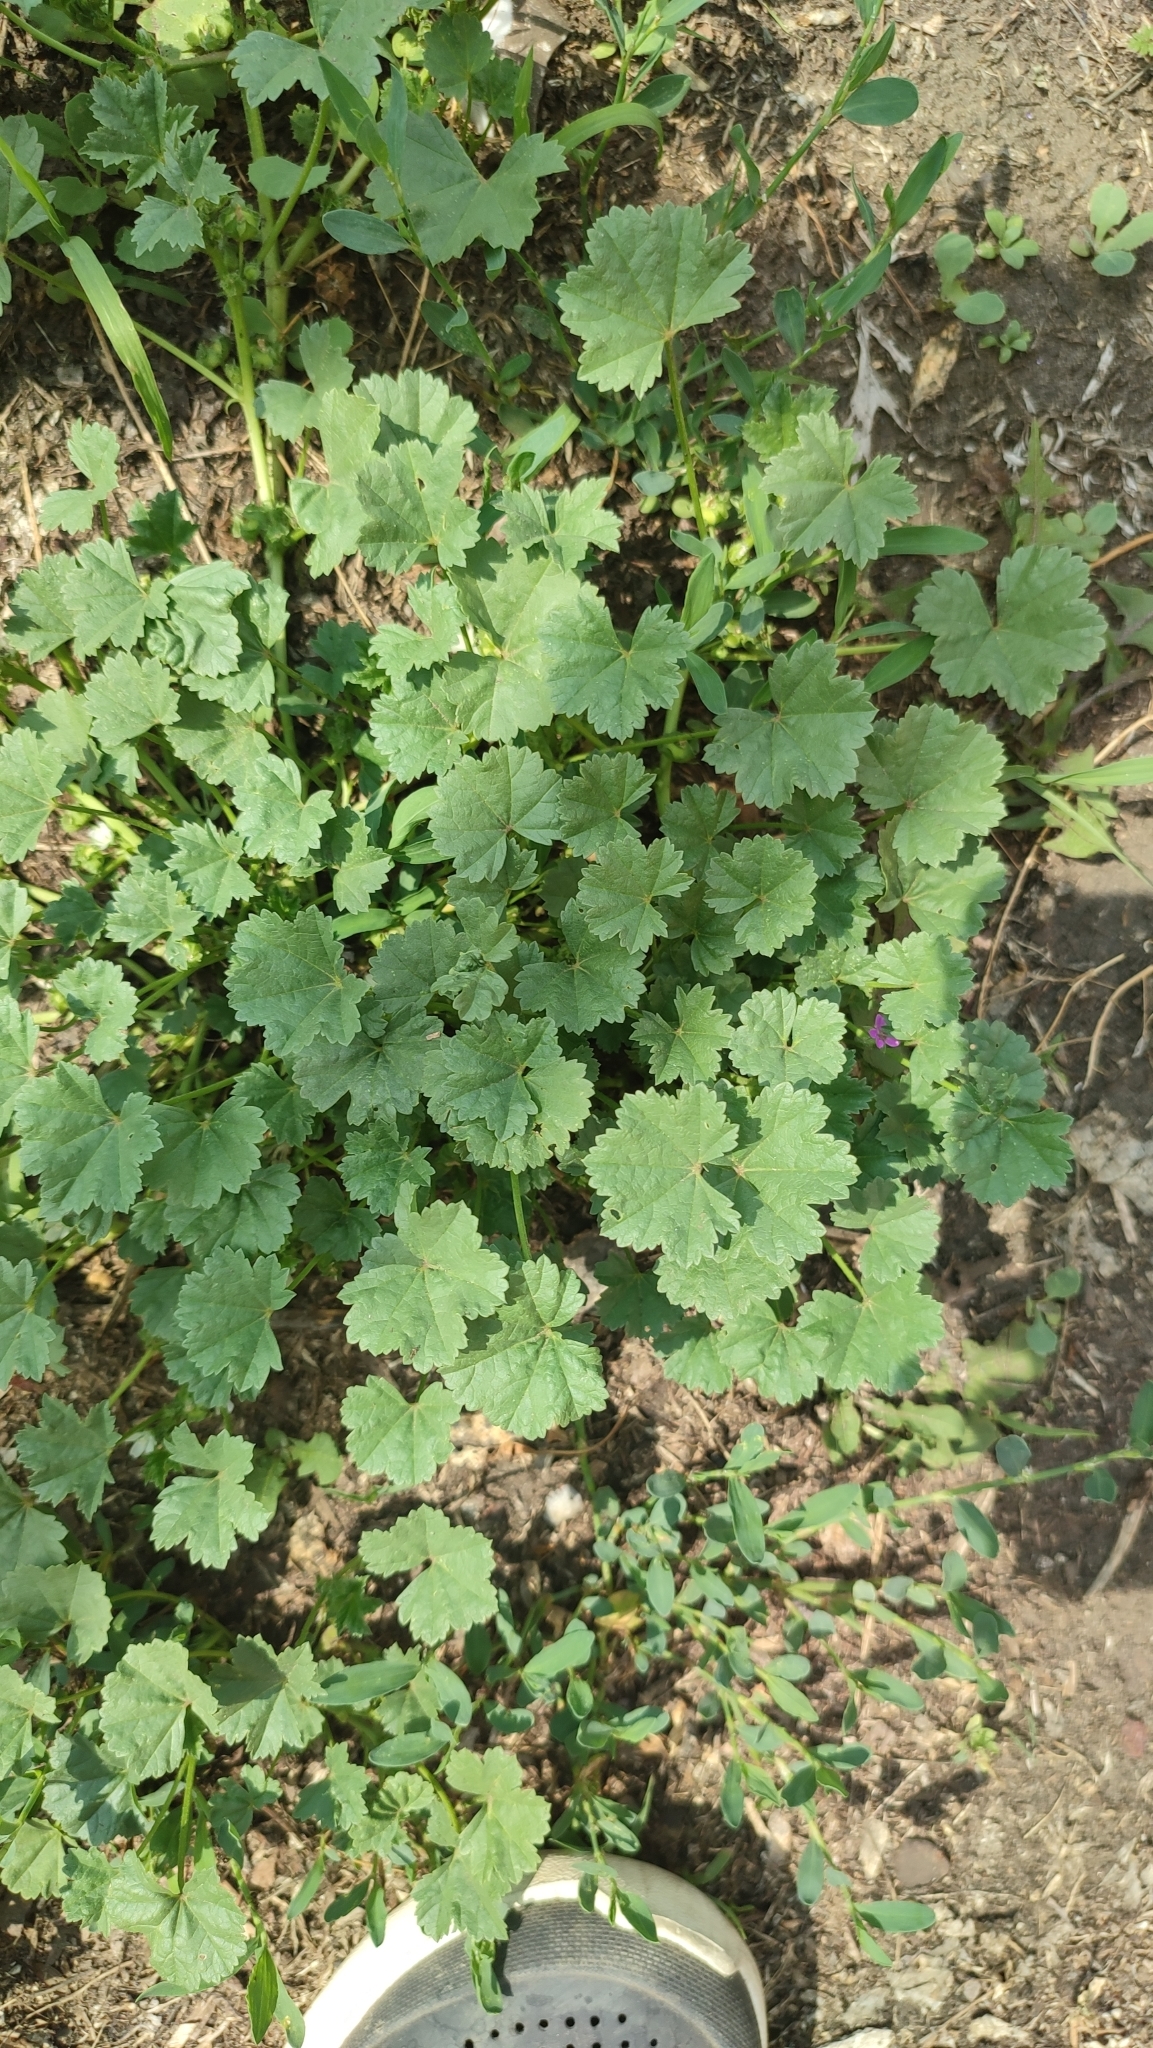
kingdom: Plantae
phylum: Tracheophyta
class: Magnoliopsida
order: Malvales
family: Malvaceae
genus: Malva
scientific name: Malva pusilla
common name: Small mallow
